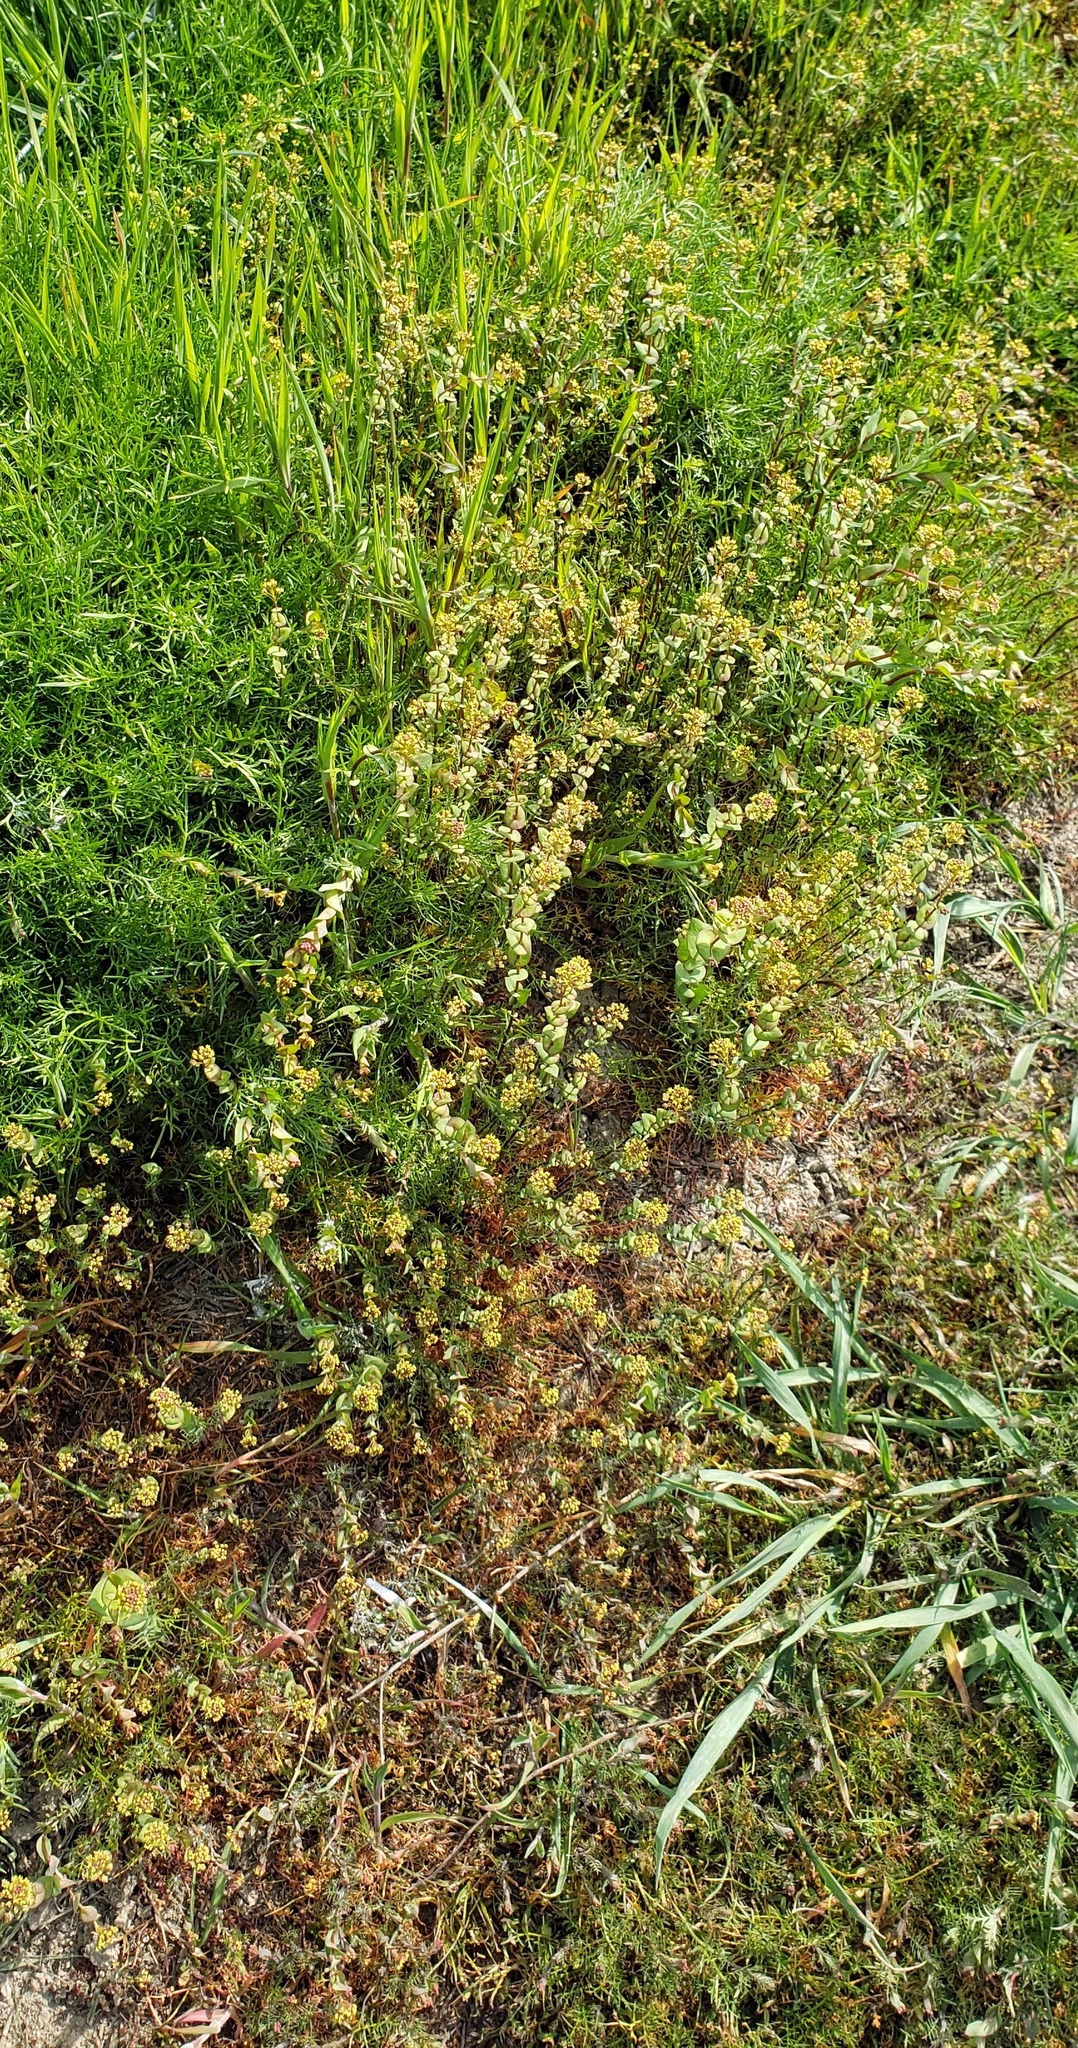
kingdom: Plantae
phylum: Tracheophyta
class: Magnoliopsida
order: Brassicales
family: Brassicaceae
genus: Lepidium
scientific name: Lepidium perfoliatum
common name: Perfoliate pepperwort
